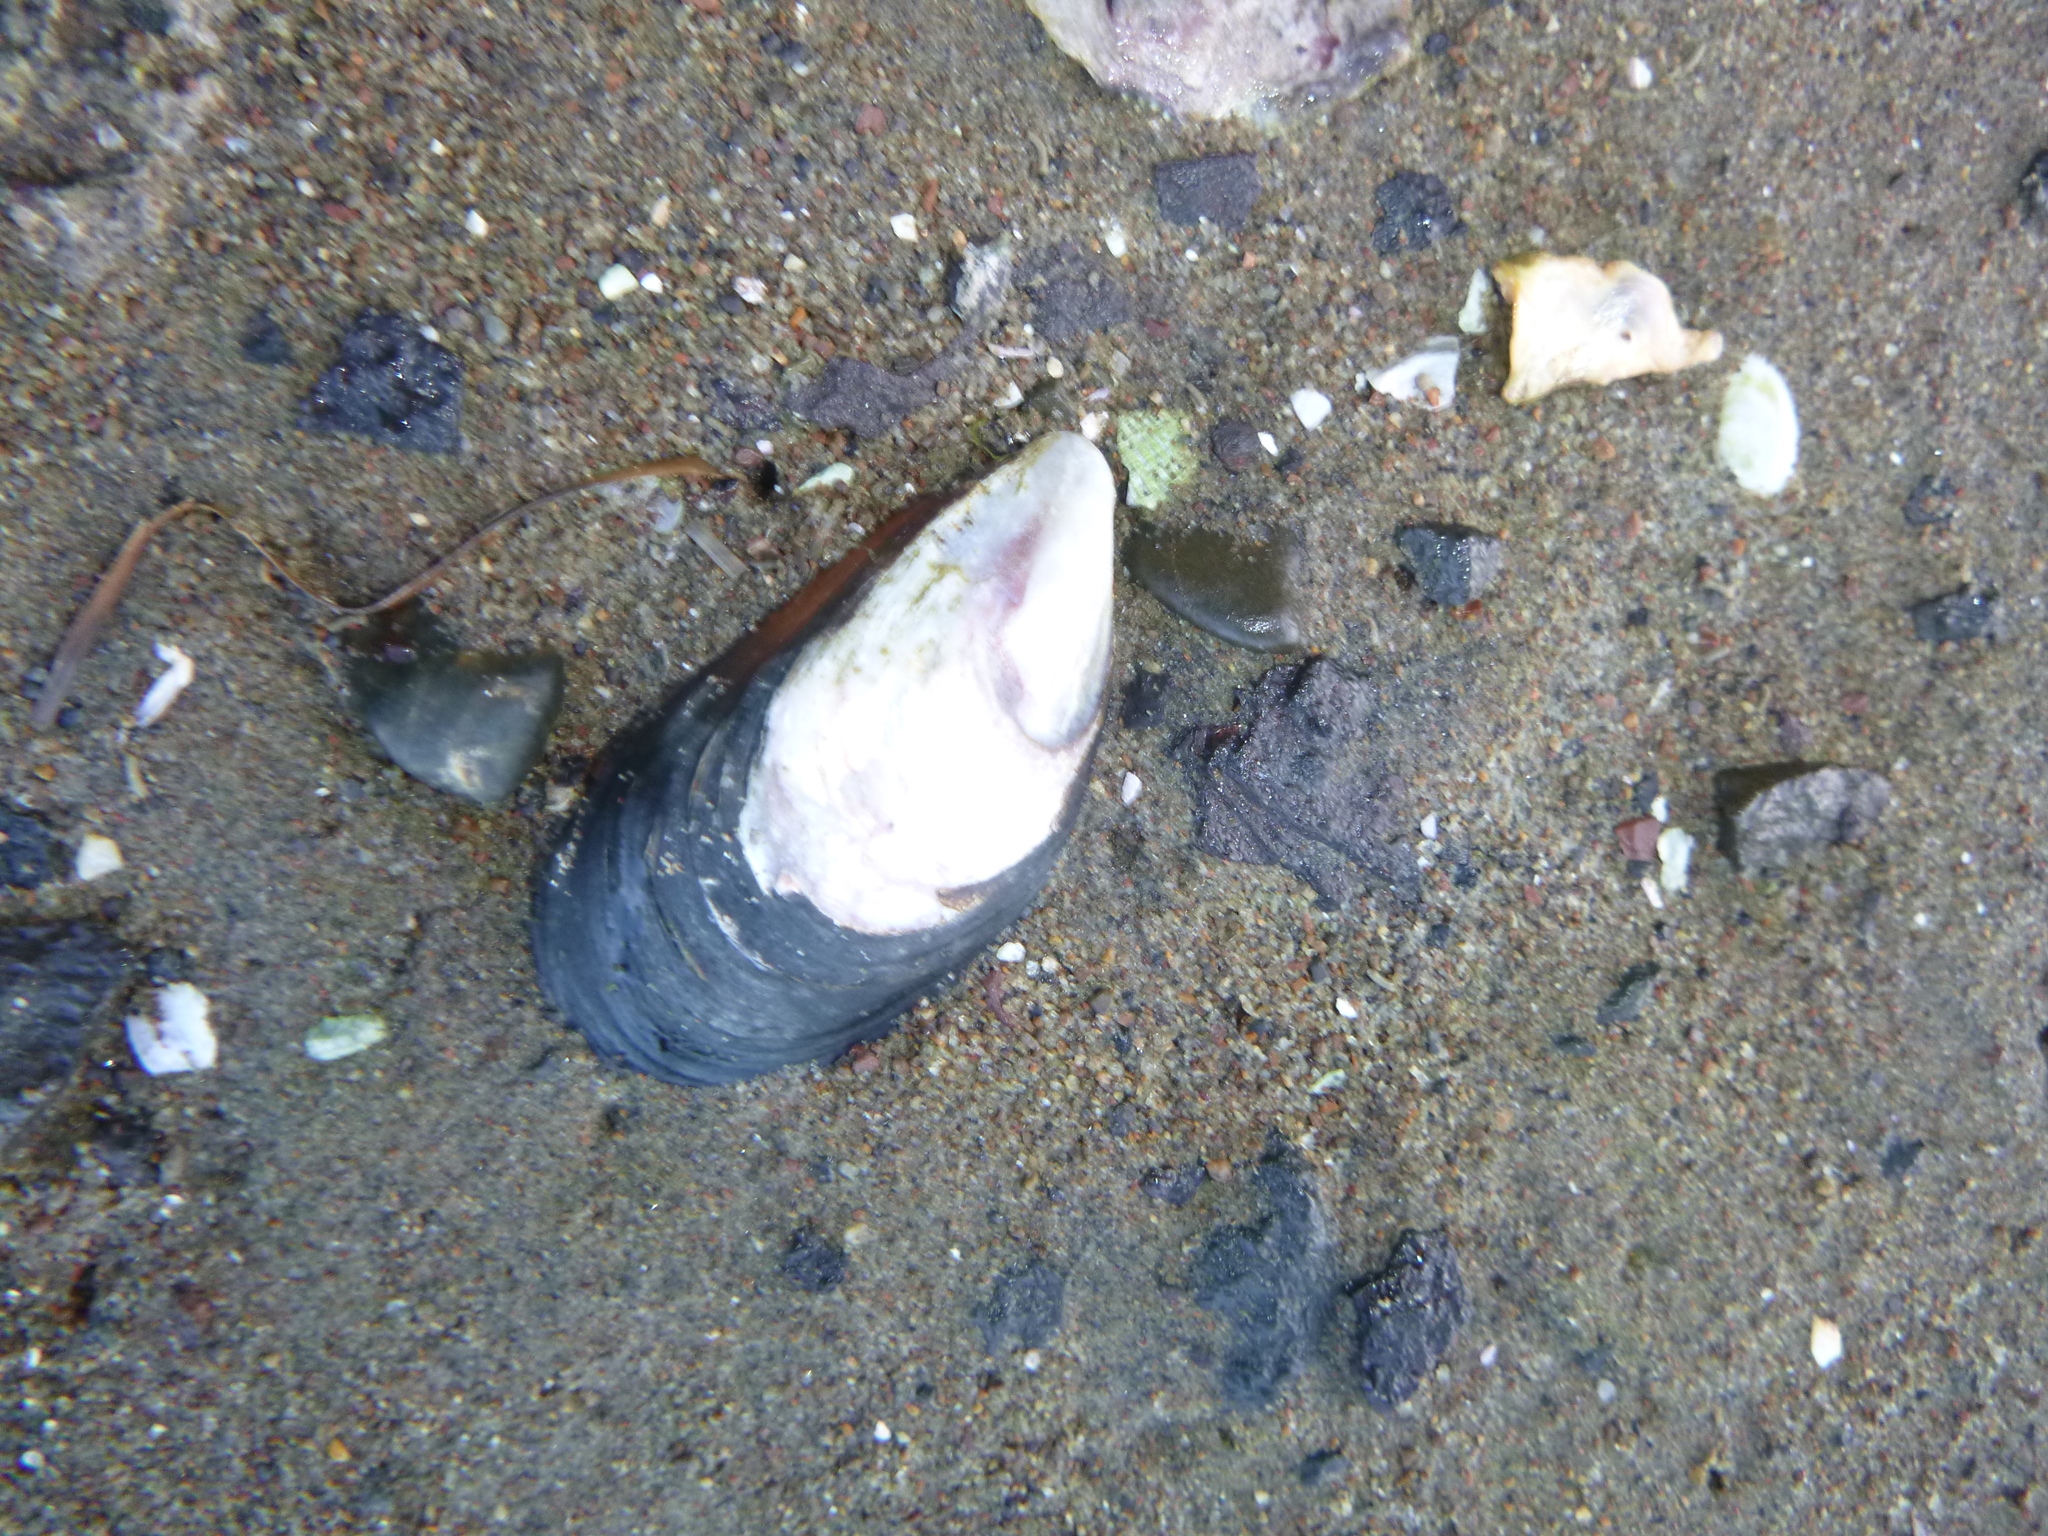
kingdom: Animalia
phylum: Mollusca
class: Bivalvia
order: Mytilida
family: Mytilidae
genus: Perna
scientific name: Perna canaliculus
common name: New zealand greenshelltm
